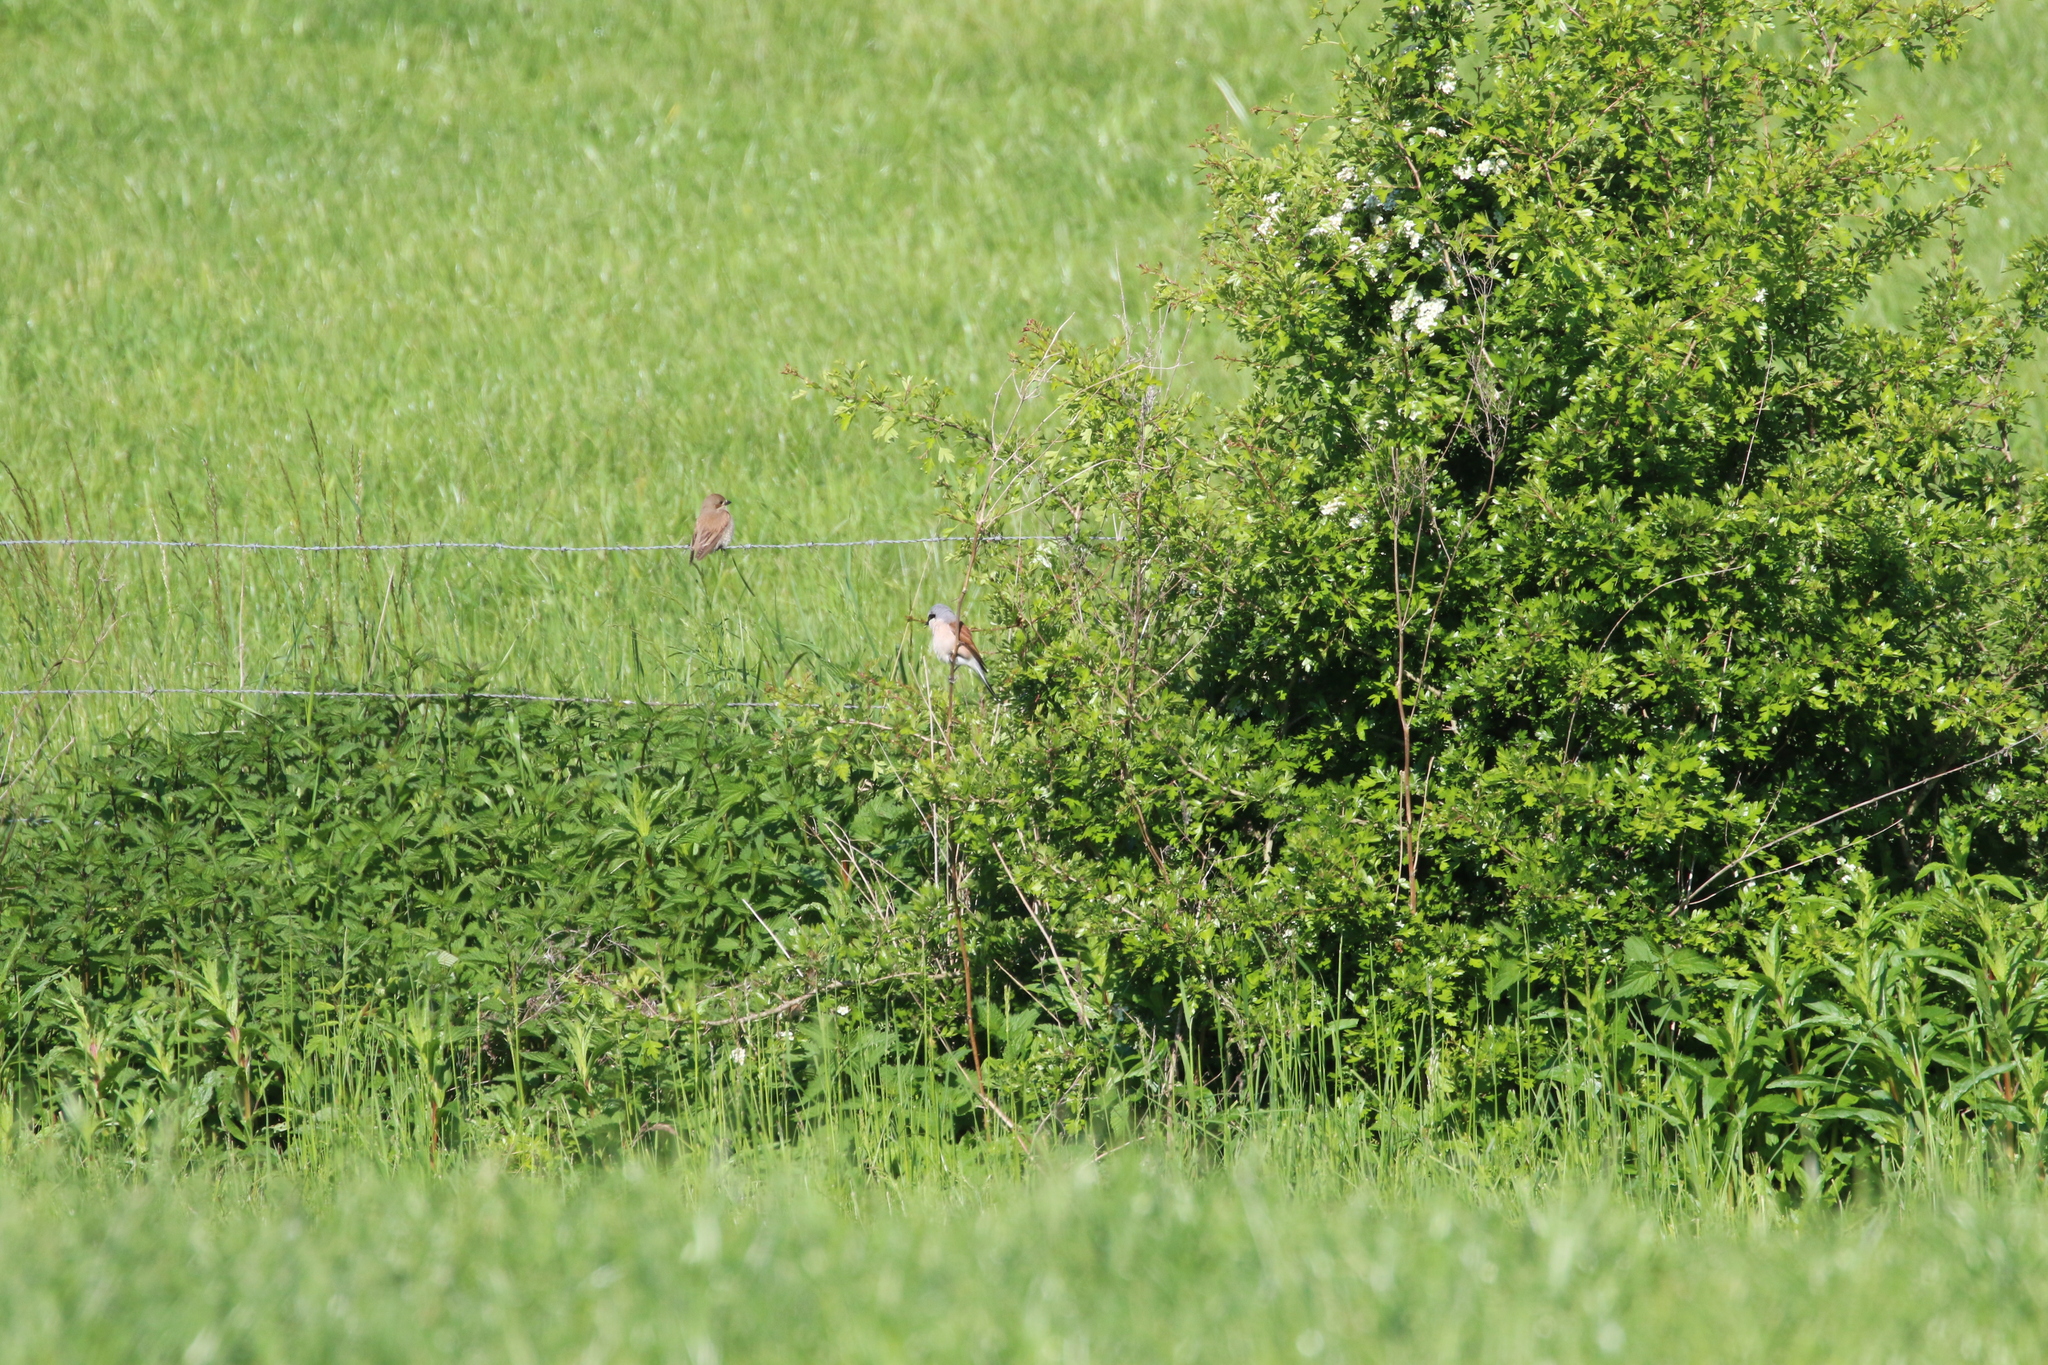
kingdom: Animalia
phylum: Chordata
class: Aves
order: Passeriformes
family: Laniidae
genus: Lanius
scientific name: Lanius collurio
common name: Red-backed shrike
